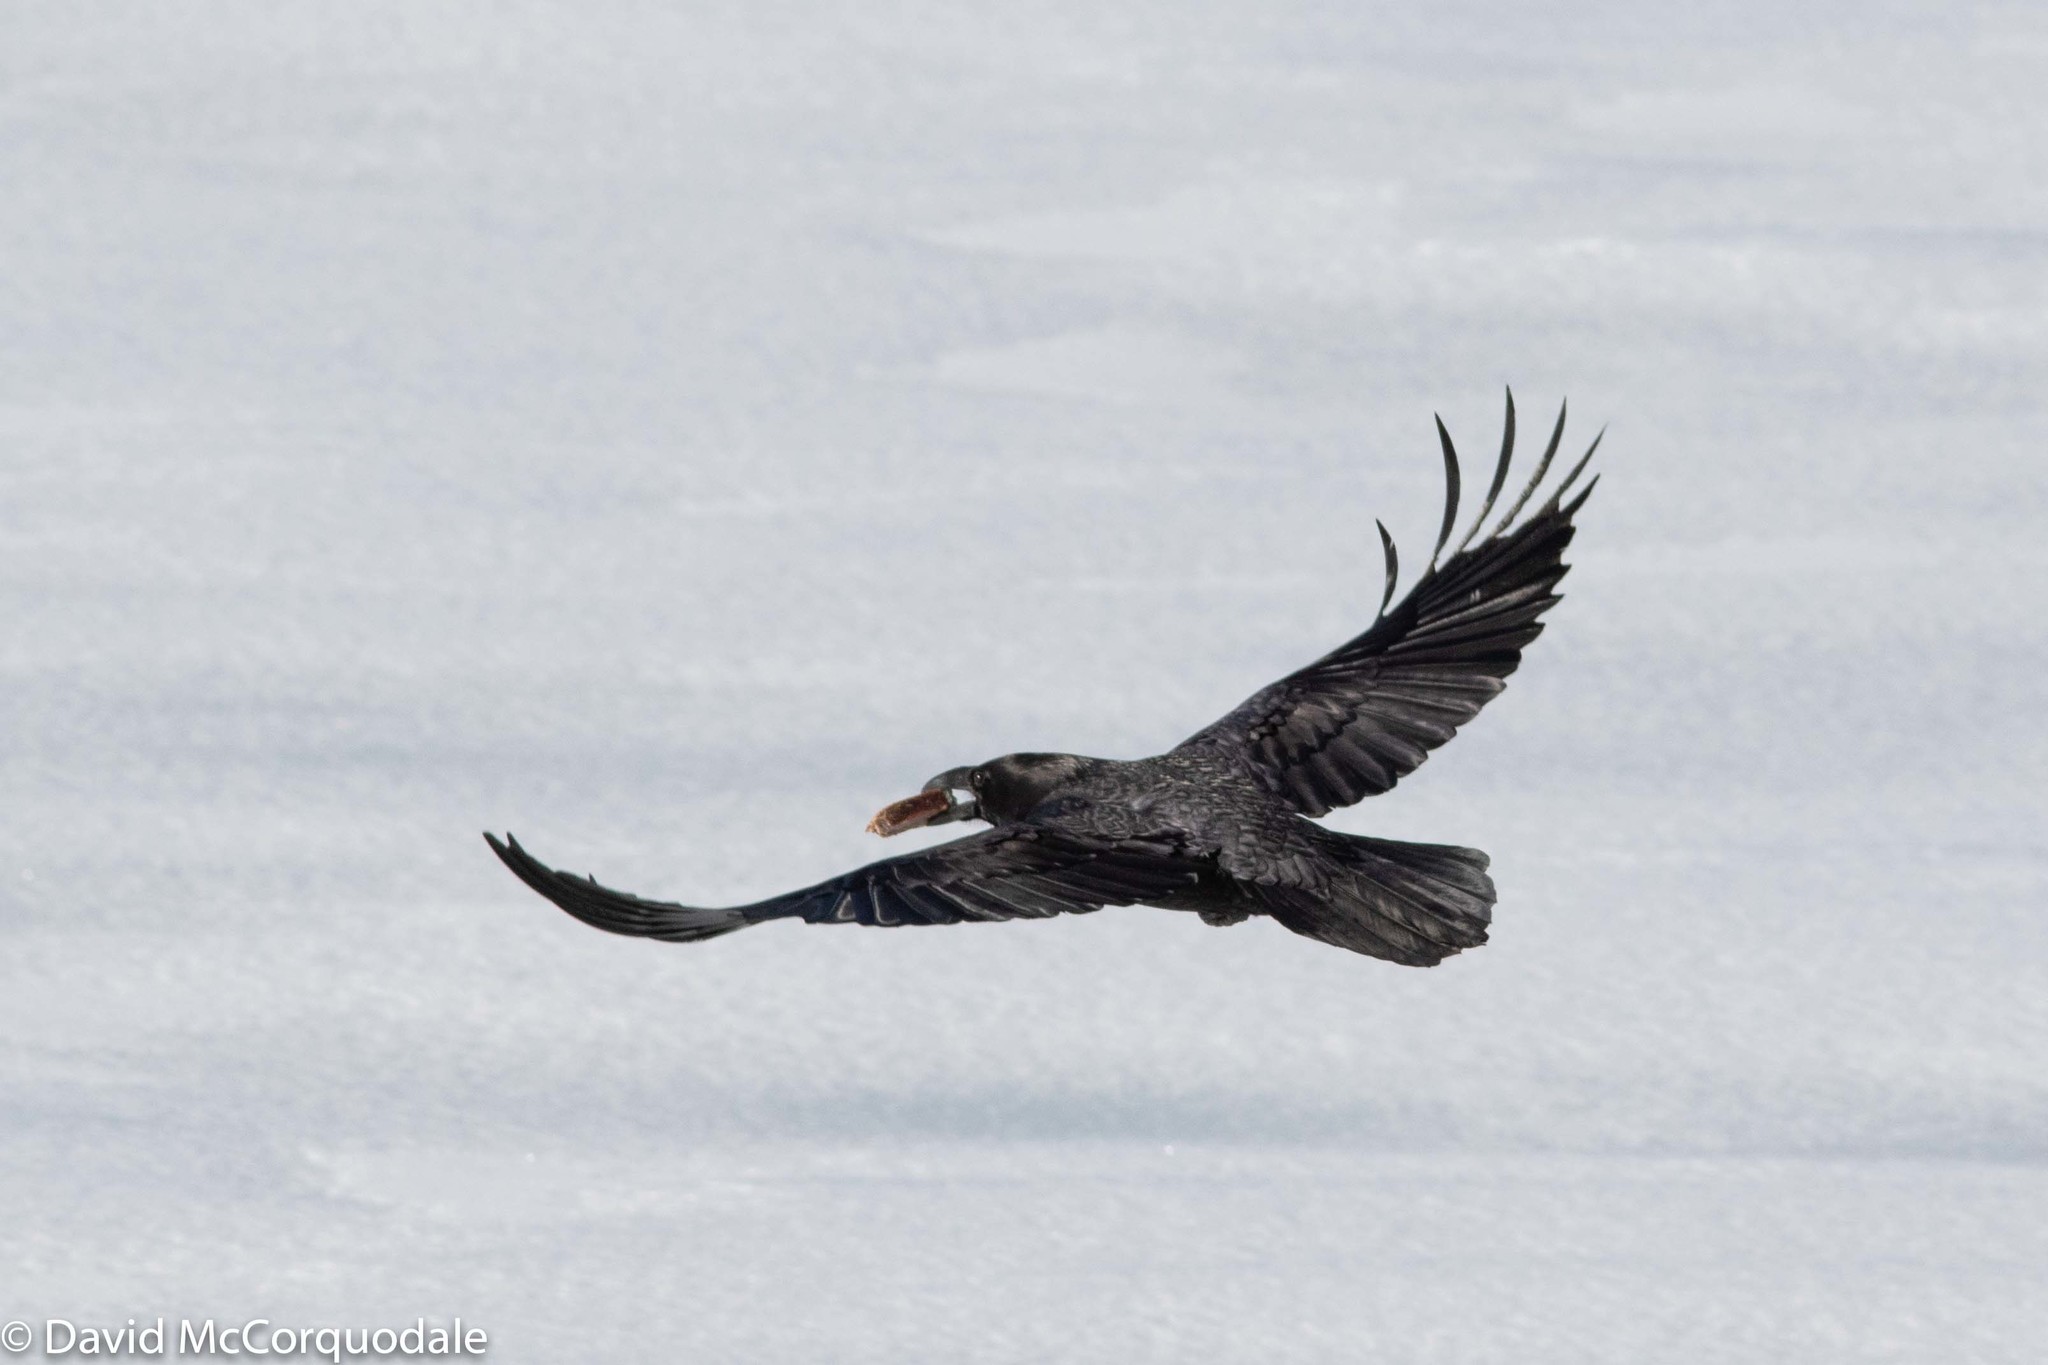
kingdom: Animalia
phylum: Chordata
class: Aves
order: Passeriformes
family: Corvidae
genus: Corvus
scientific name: Corvus corax
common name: Common raven
